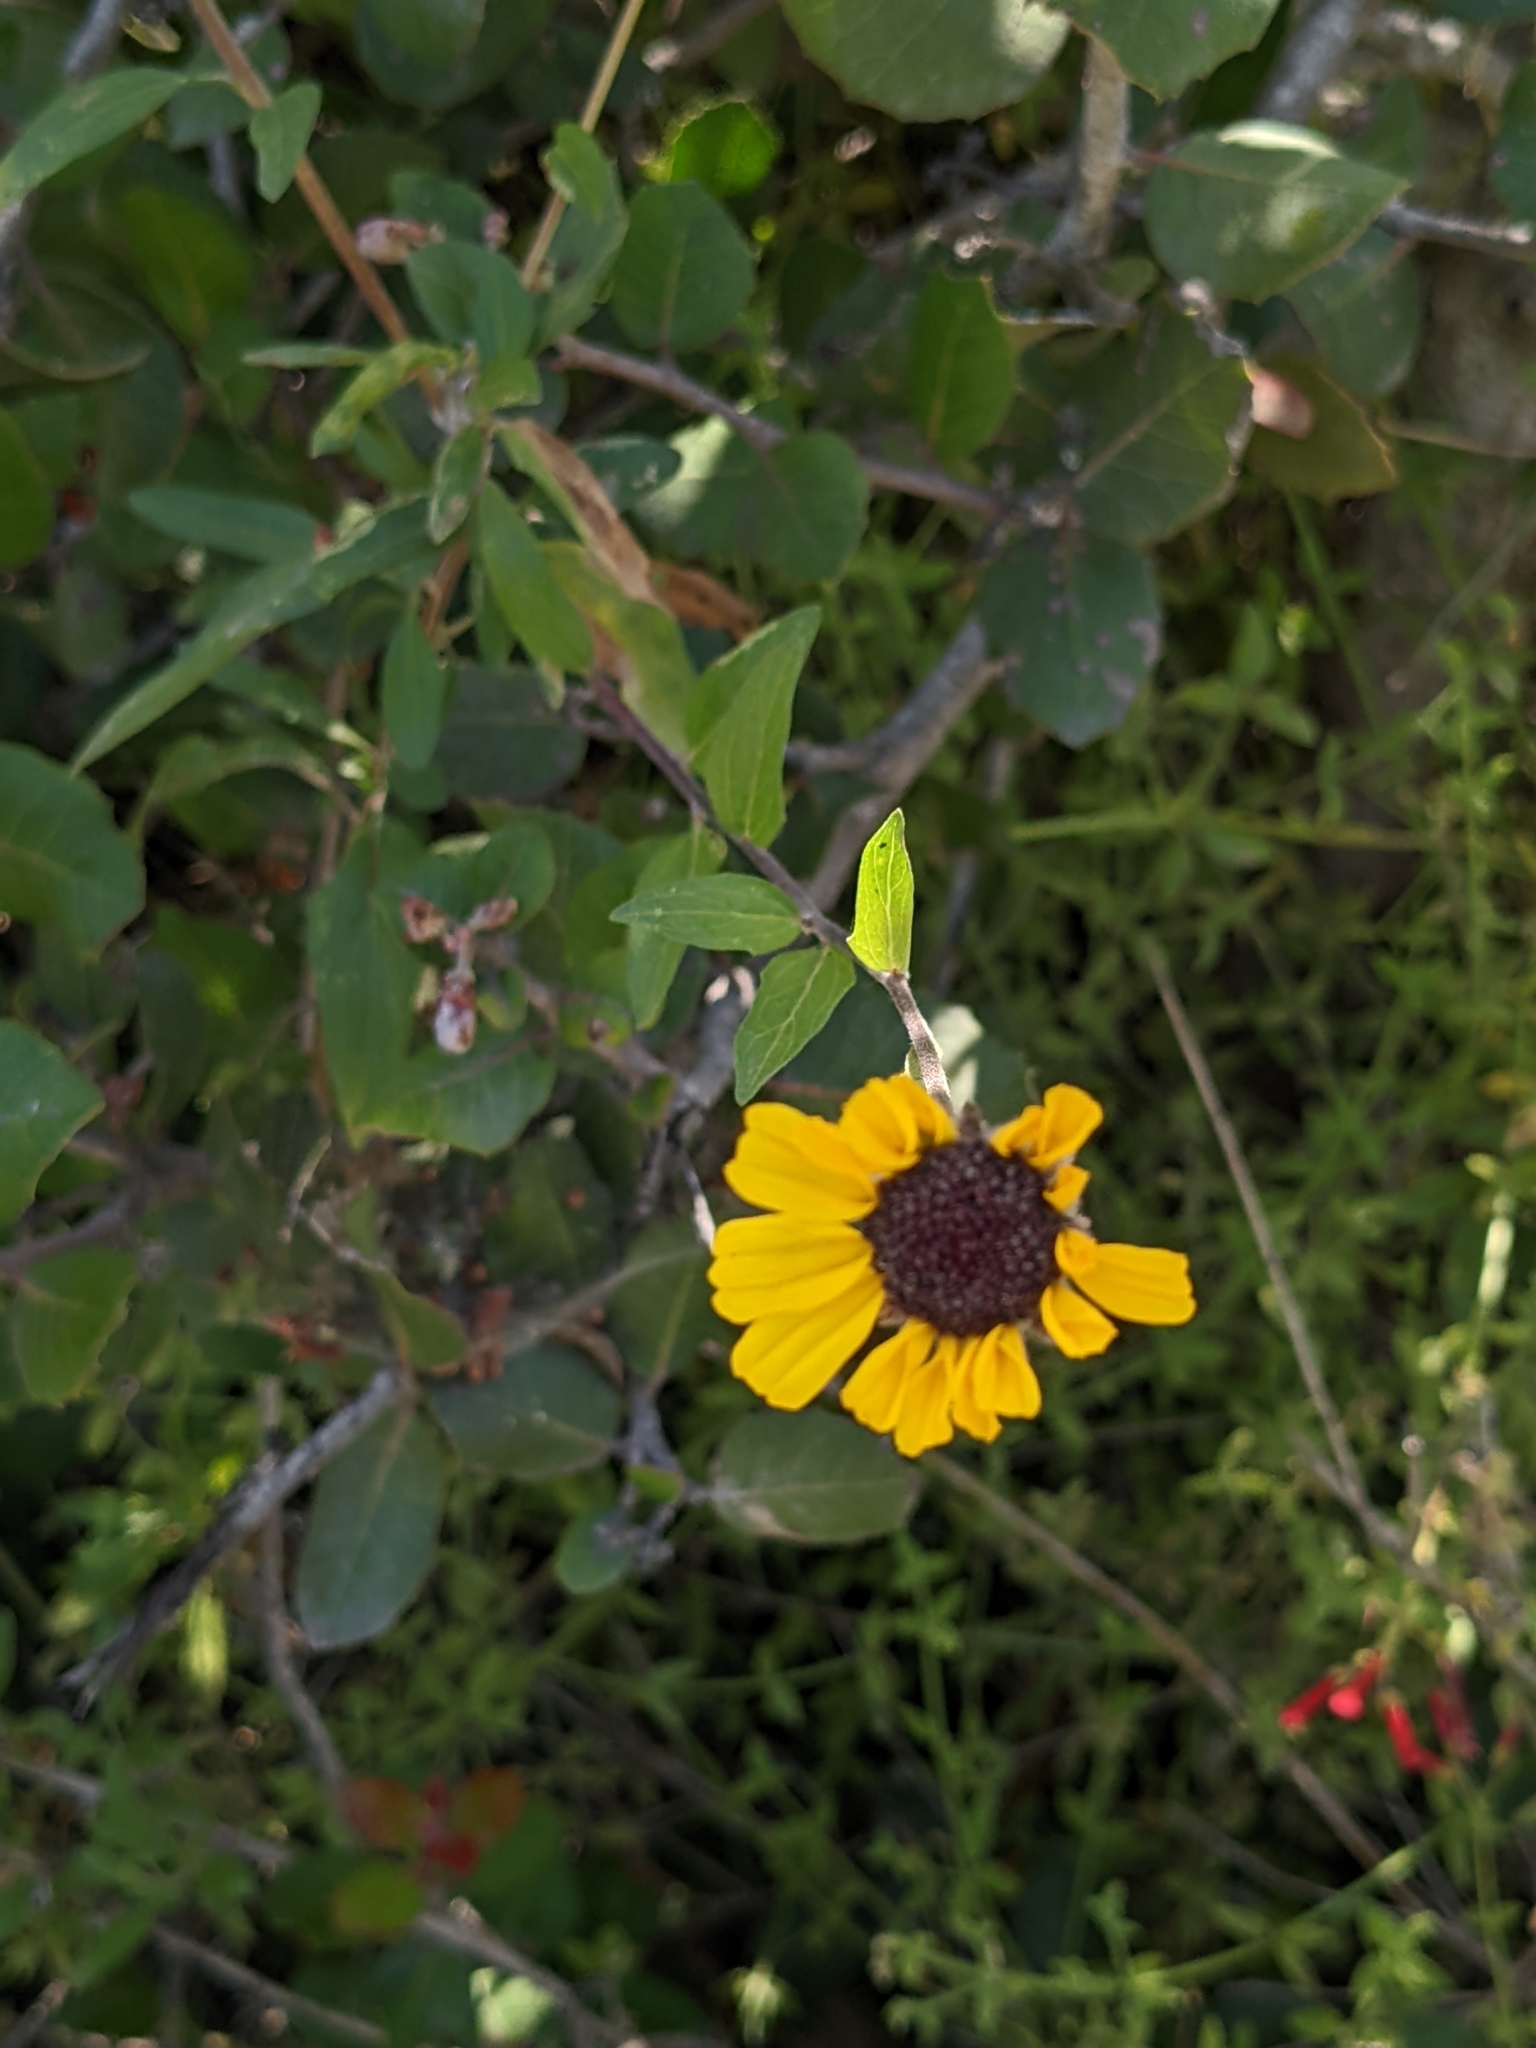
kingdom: Plantae
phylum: Tracheophyta
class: Magnoliopsida
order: Asterales
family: Asteraceae
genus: Encelia
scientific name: Encelia californica
